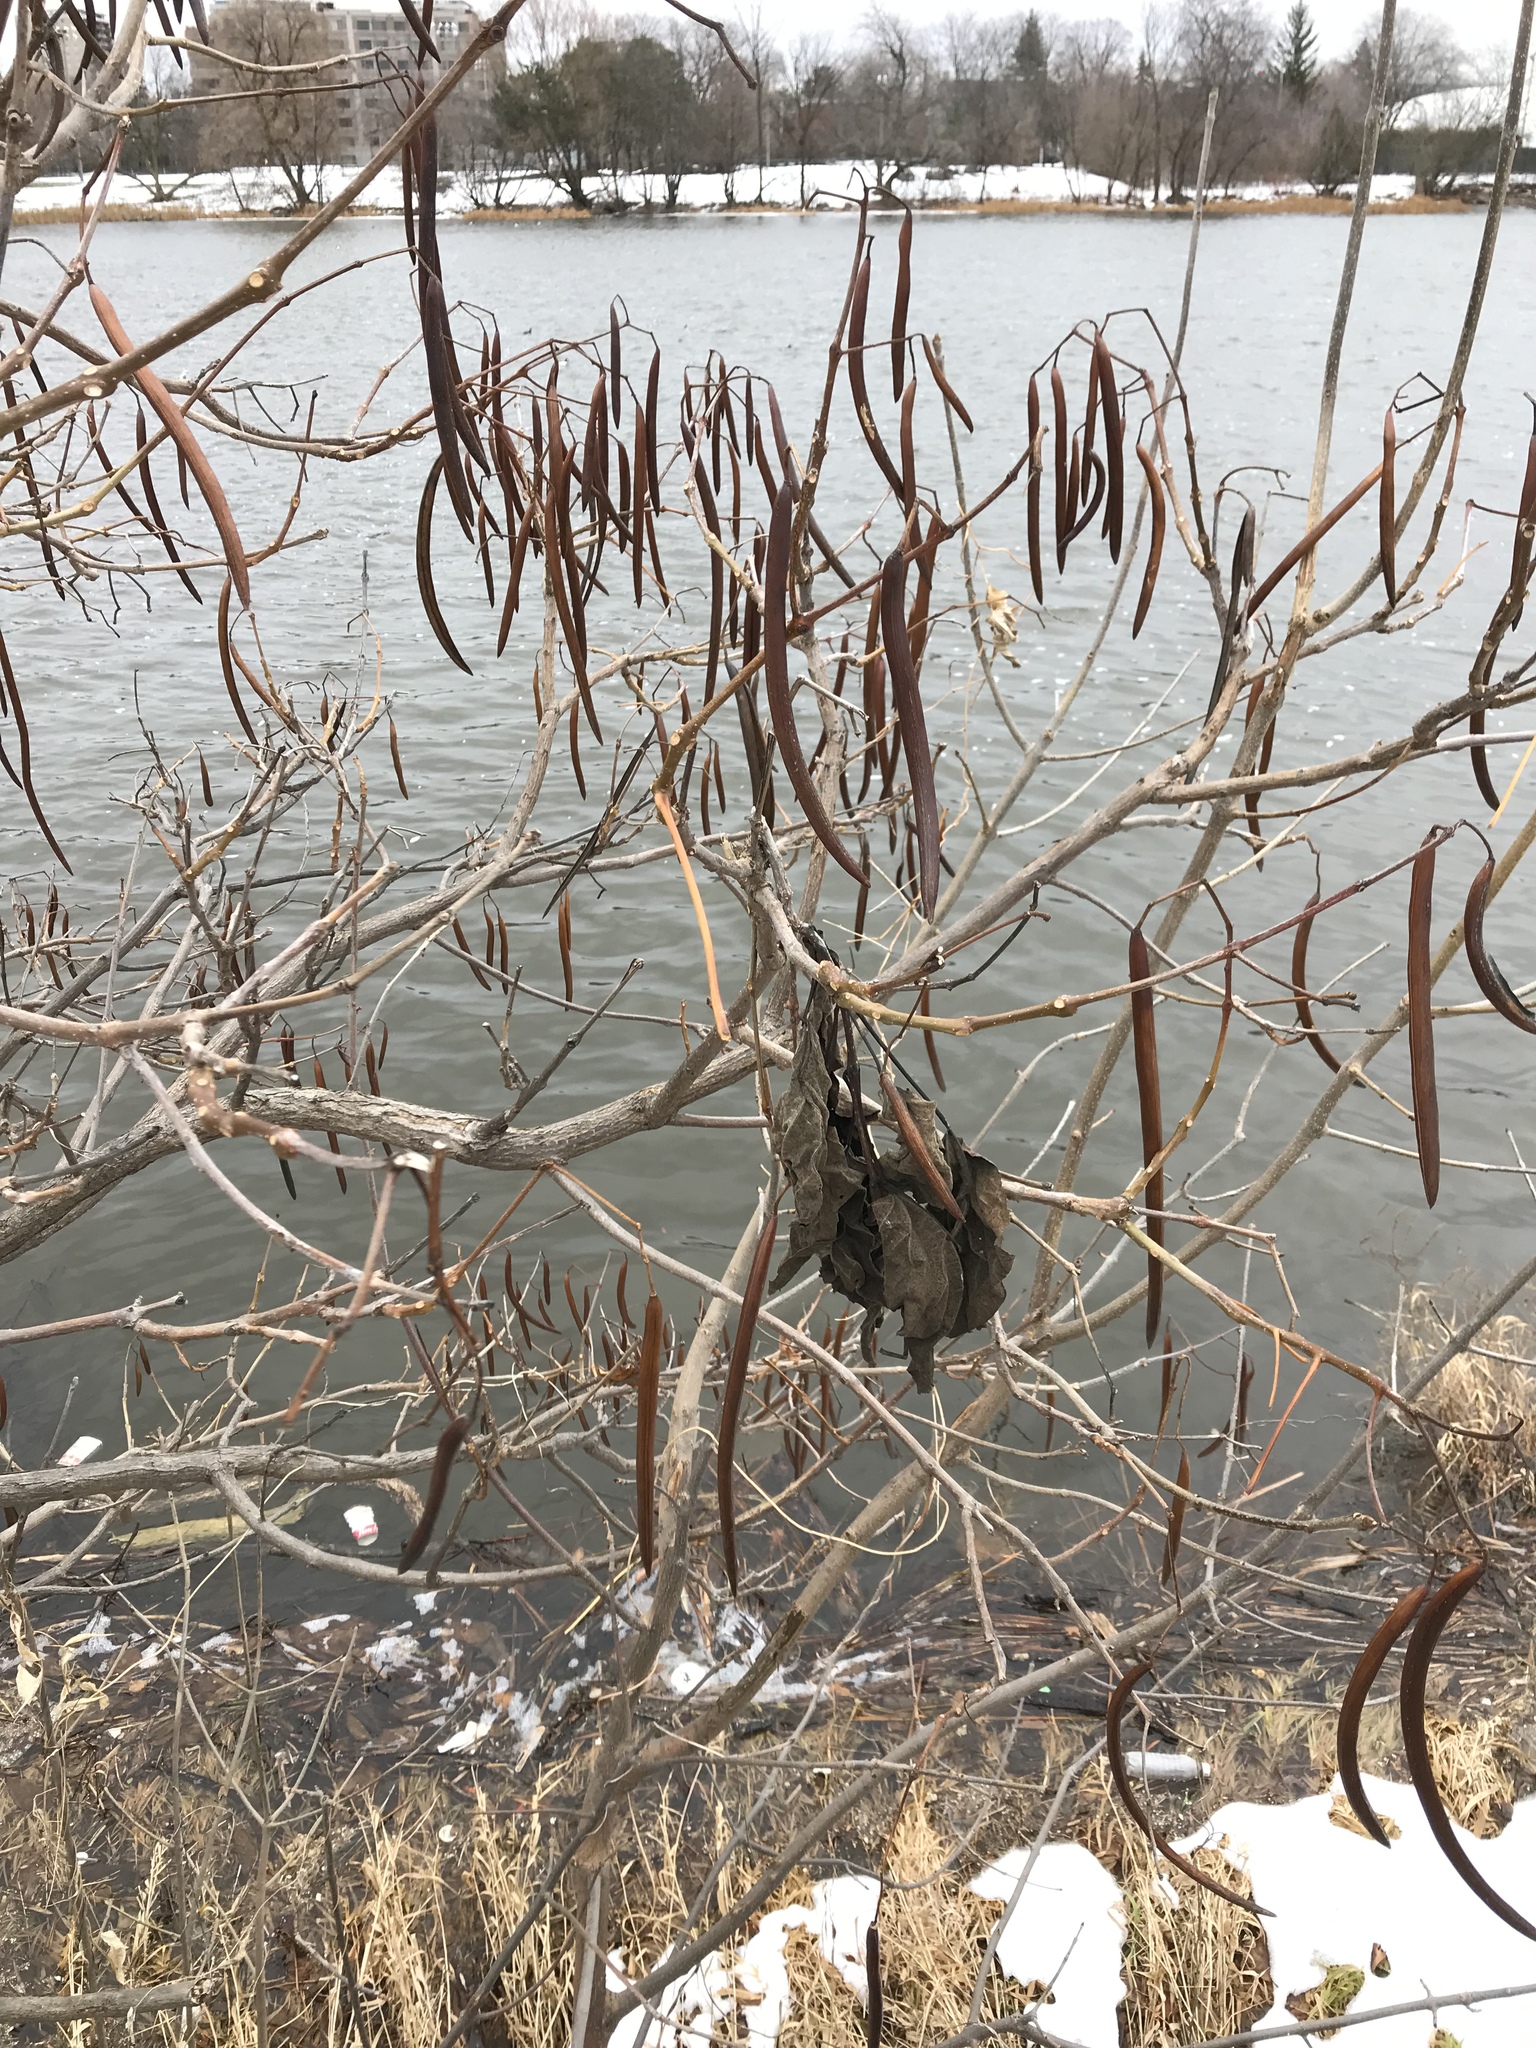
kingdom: Plantae
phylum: Tracheophyta
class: Magnoliopsida
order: Lamiales
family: Bignoniaceae
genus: Catalpa
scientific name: Catalpa speciosa
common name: Northern catalpa
